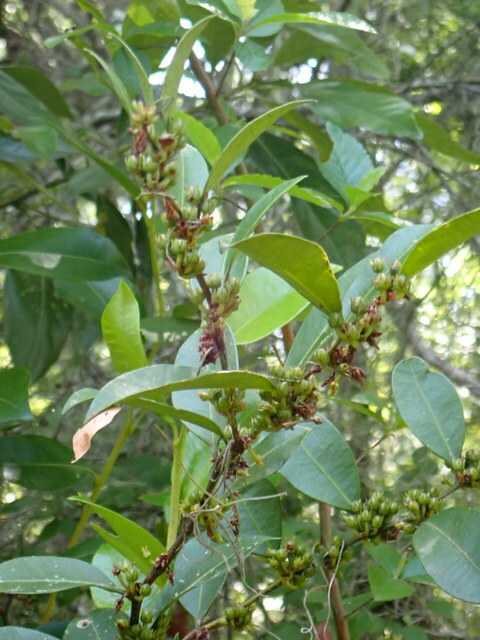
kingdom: Plantae
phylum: Tracheophyta
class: Magnoliopsida
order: Ericales
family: Ericaceae
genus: Lyonia
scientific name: Lyonia lucida
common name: Fetterbush
